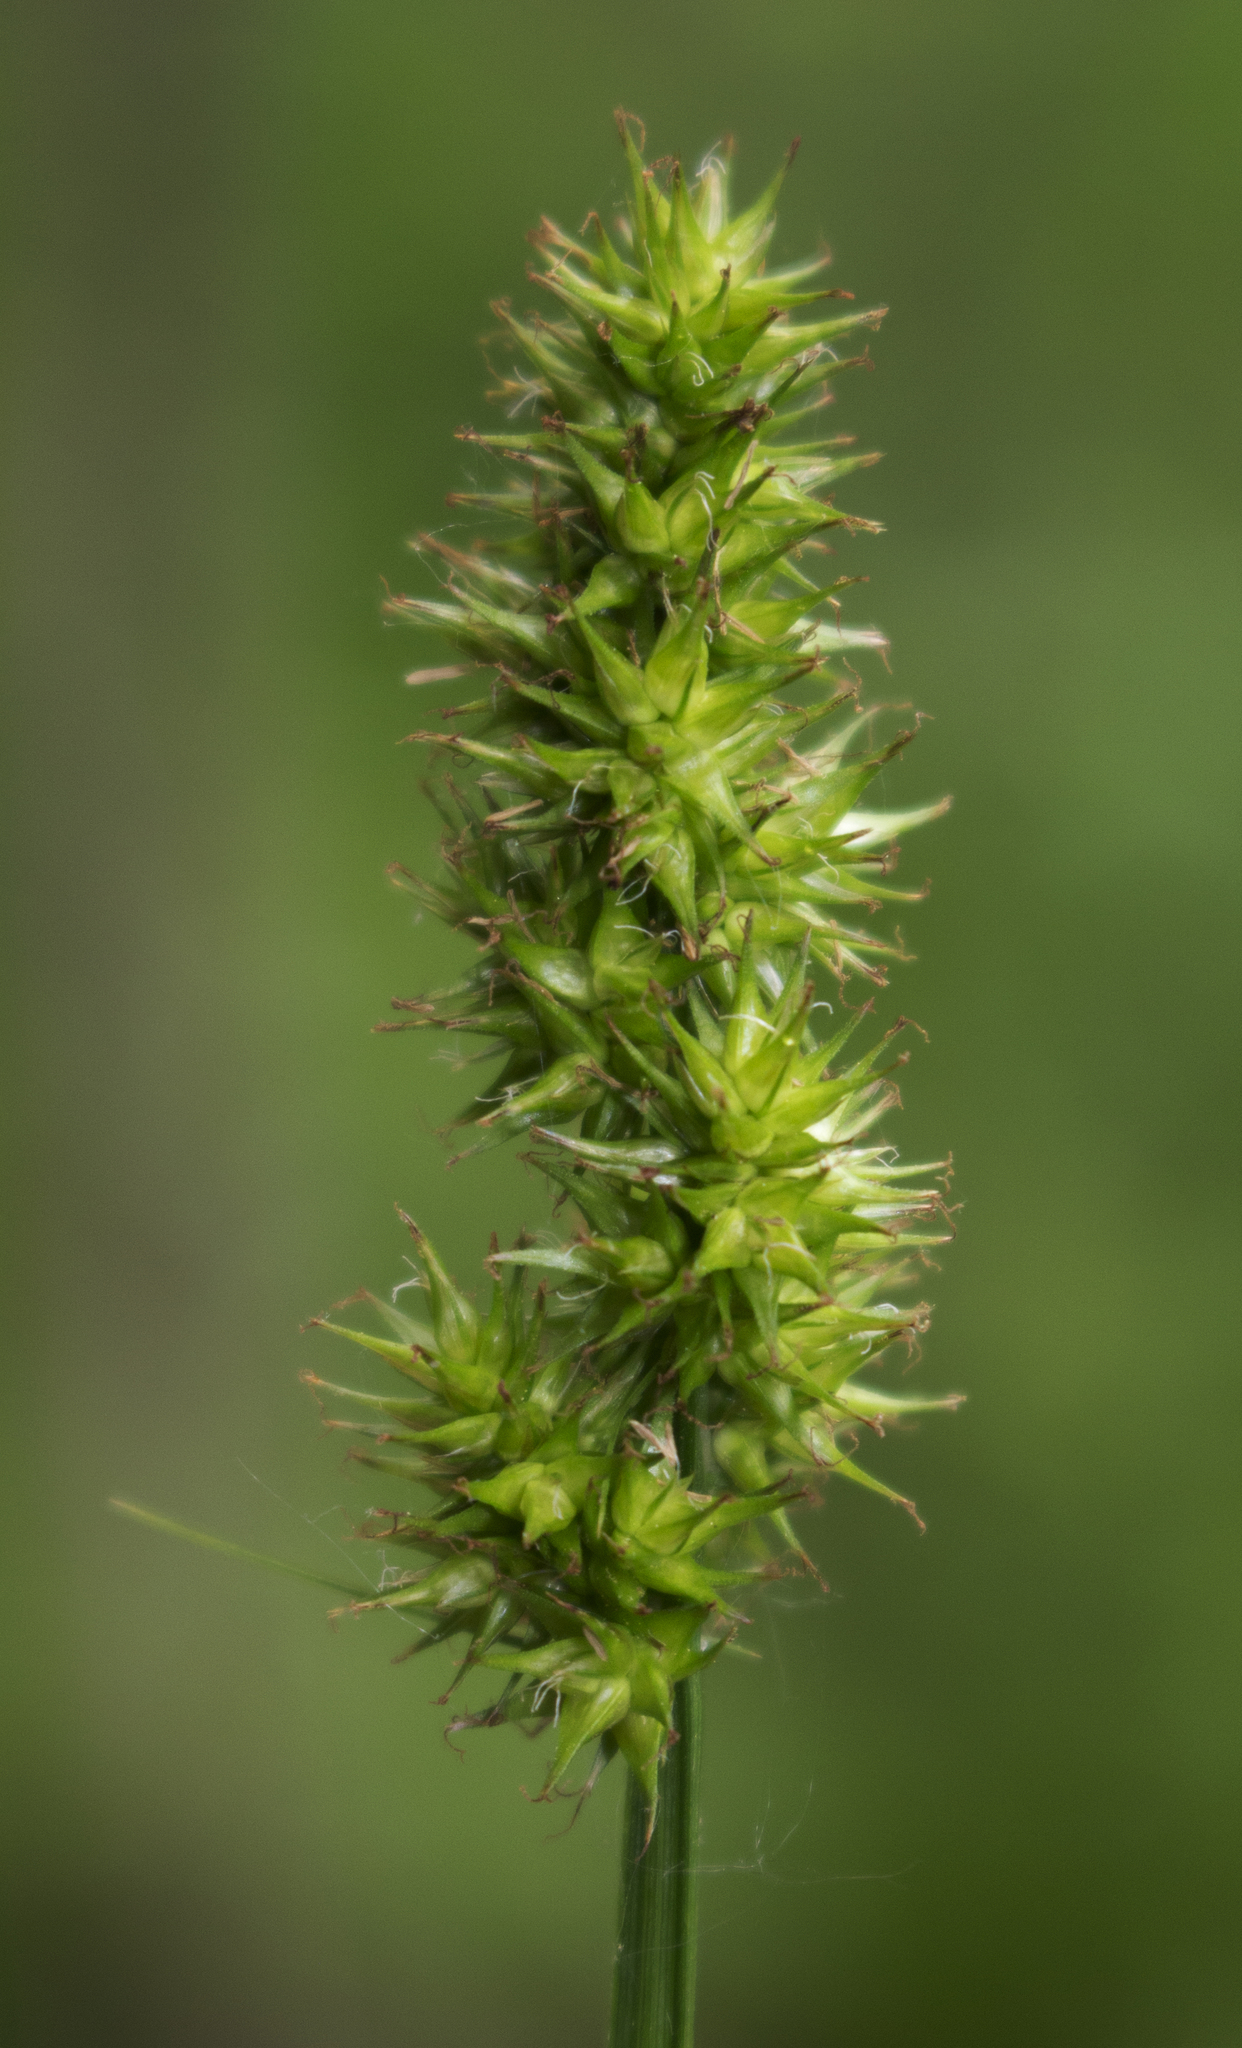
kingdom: Plantae
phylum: Tracheophyta
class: Liliopsida
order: Poales
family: Cyperaceae
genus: Carex
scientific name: Carex stipata
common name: Awl-fruited sedge
